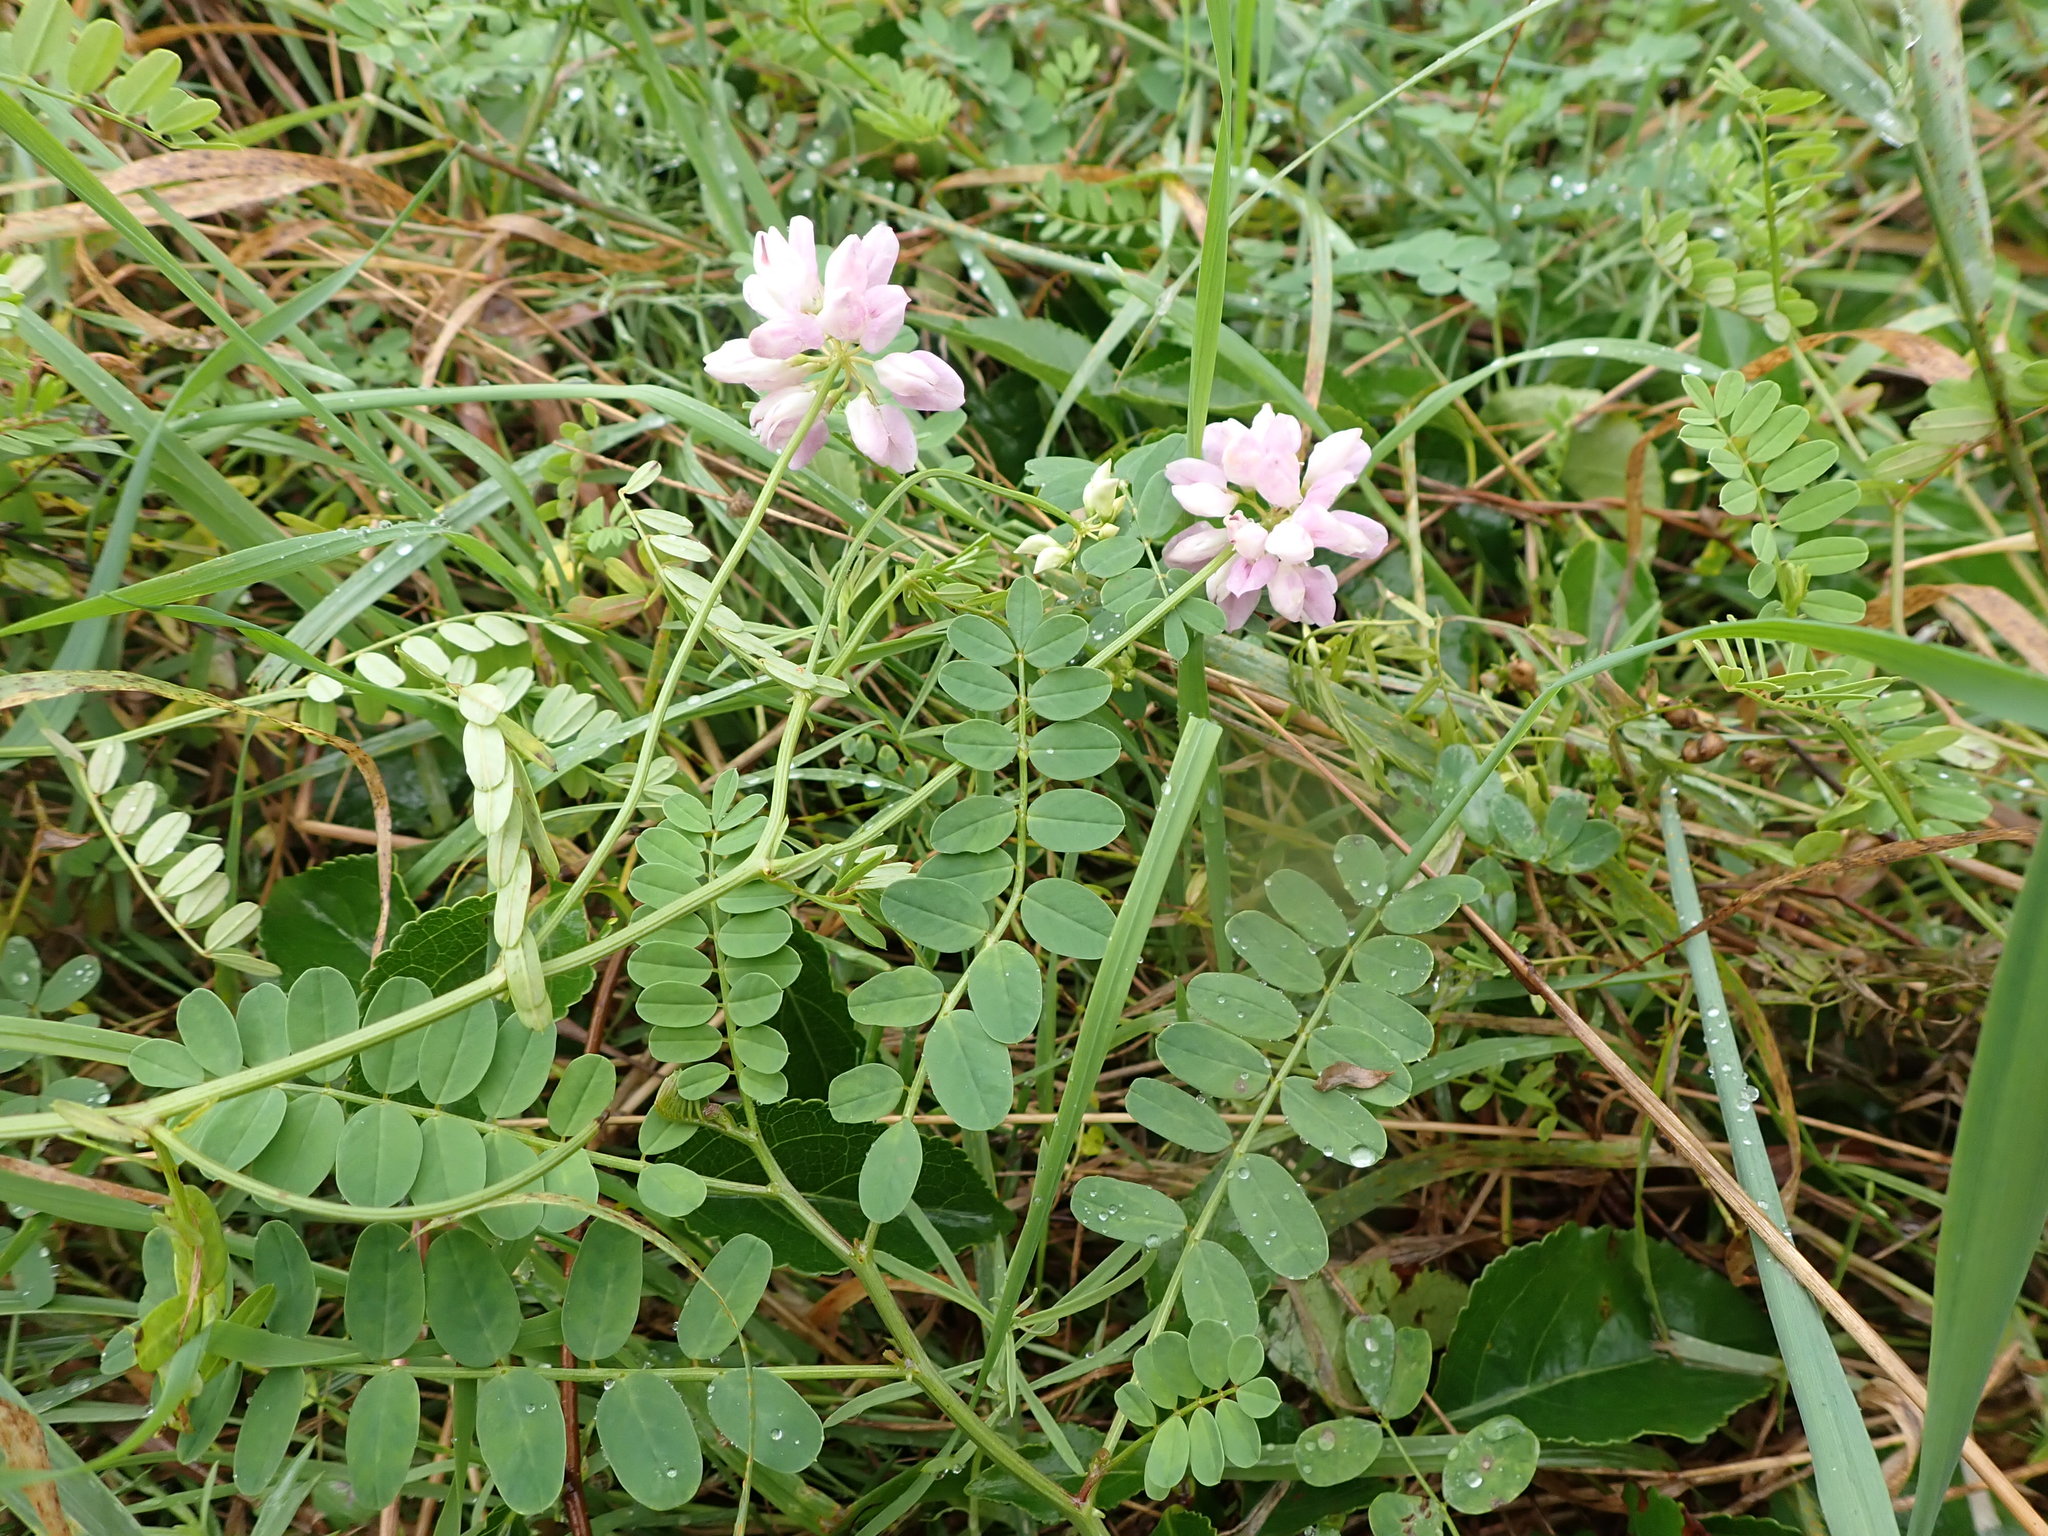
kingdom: Plantae
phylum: Tracheophyta
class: Magnoliopsida
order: Fabales
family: Fabaceae
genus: Coronilla
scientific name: Coronilla varia
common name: Crownvetch
